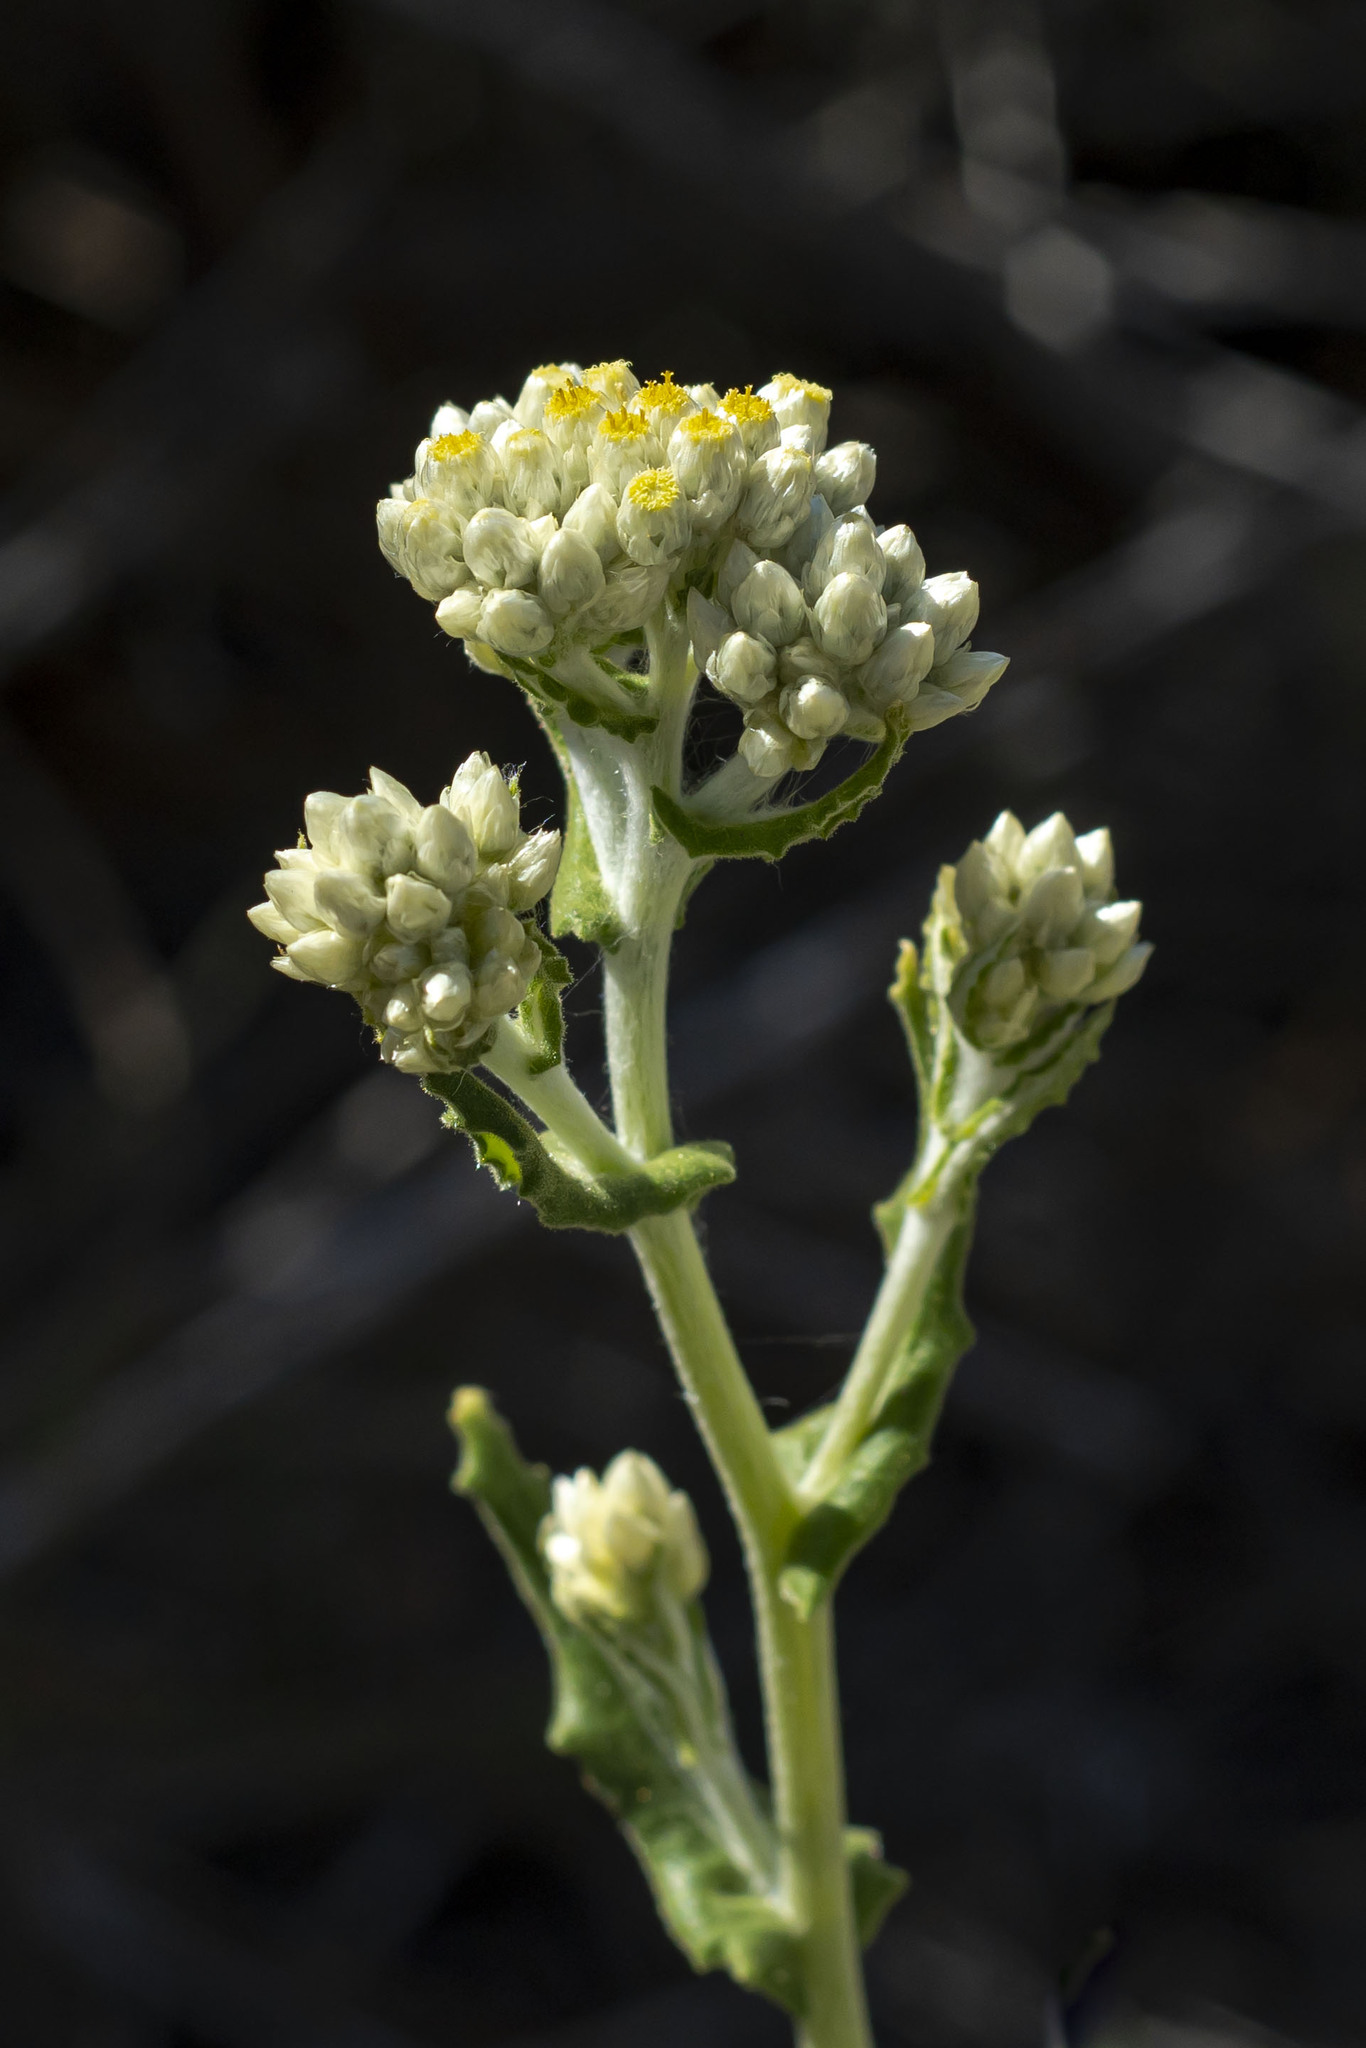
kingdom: Plantae
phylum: Tracheophyta
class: Magnoliopsida
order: Asterales
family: Asteraceae
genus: Pseudognaphalium
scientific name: Pseudognaphalium biolettii
